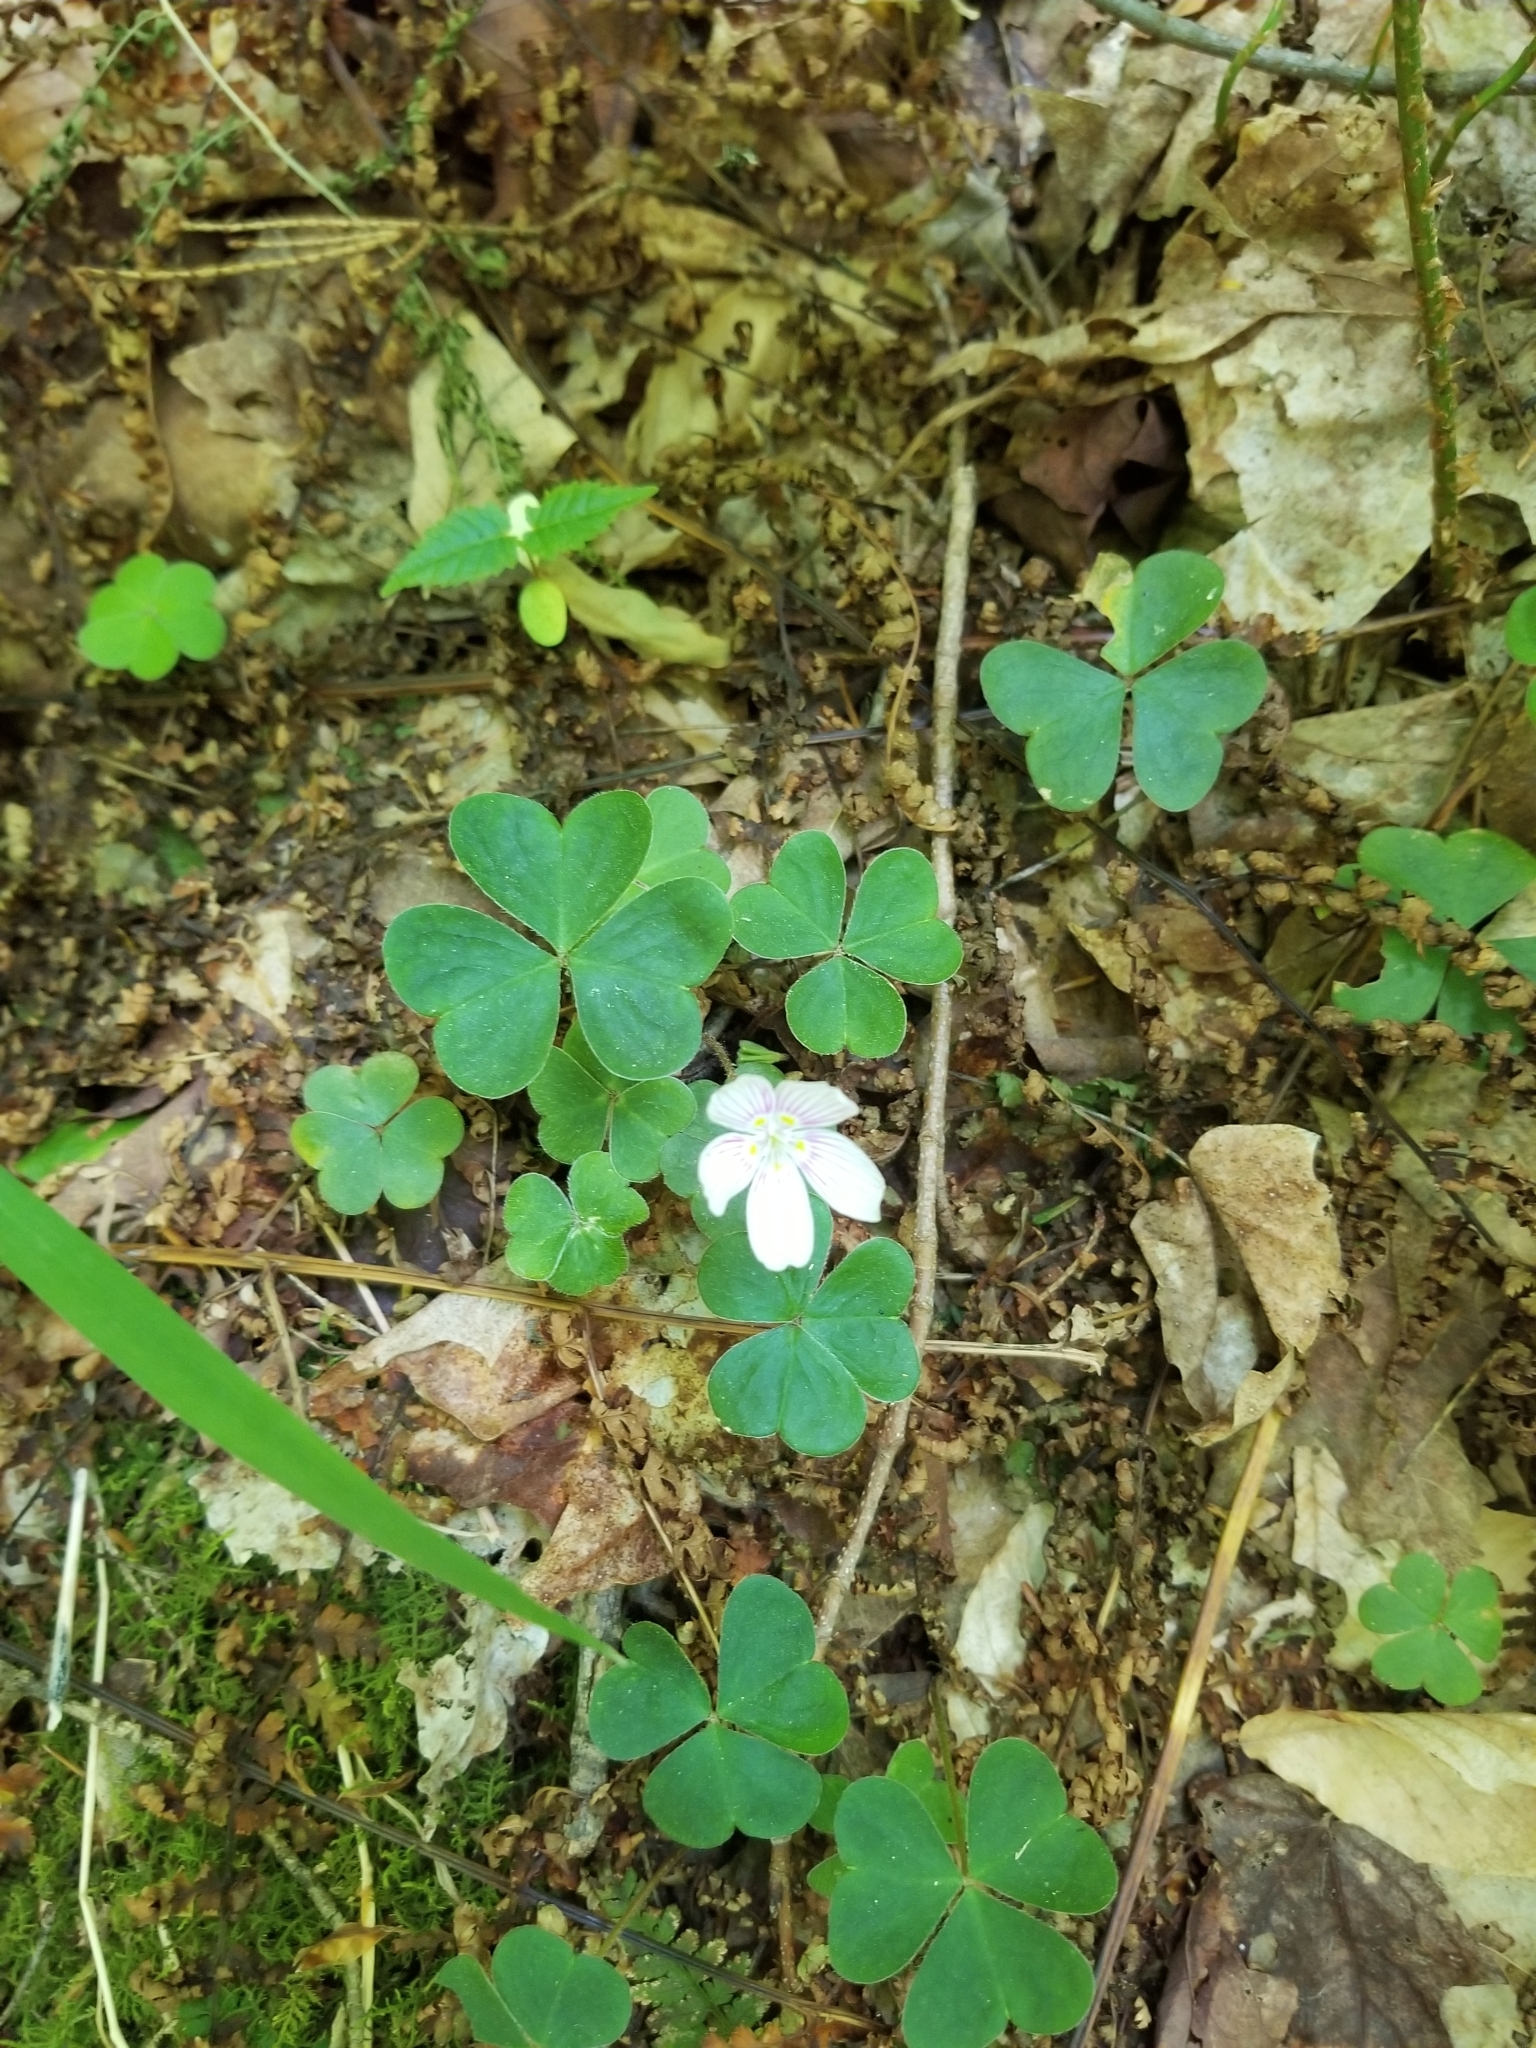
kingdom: Plantae
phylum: Tracheophyta
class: Magnoliopsida
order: Oxalidales
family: Oxalidaceae
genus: Oxalis
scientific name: Oxalis montana
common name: American wood-sorrel
